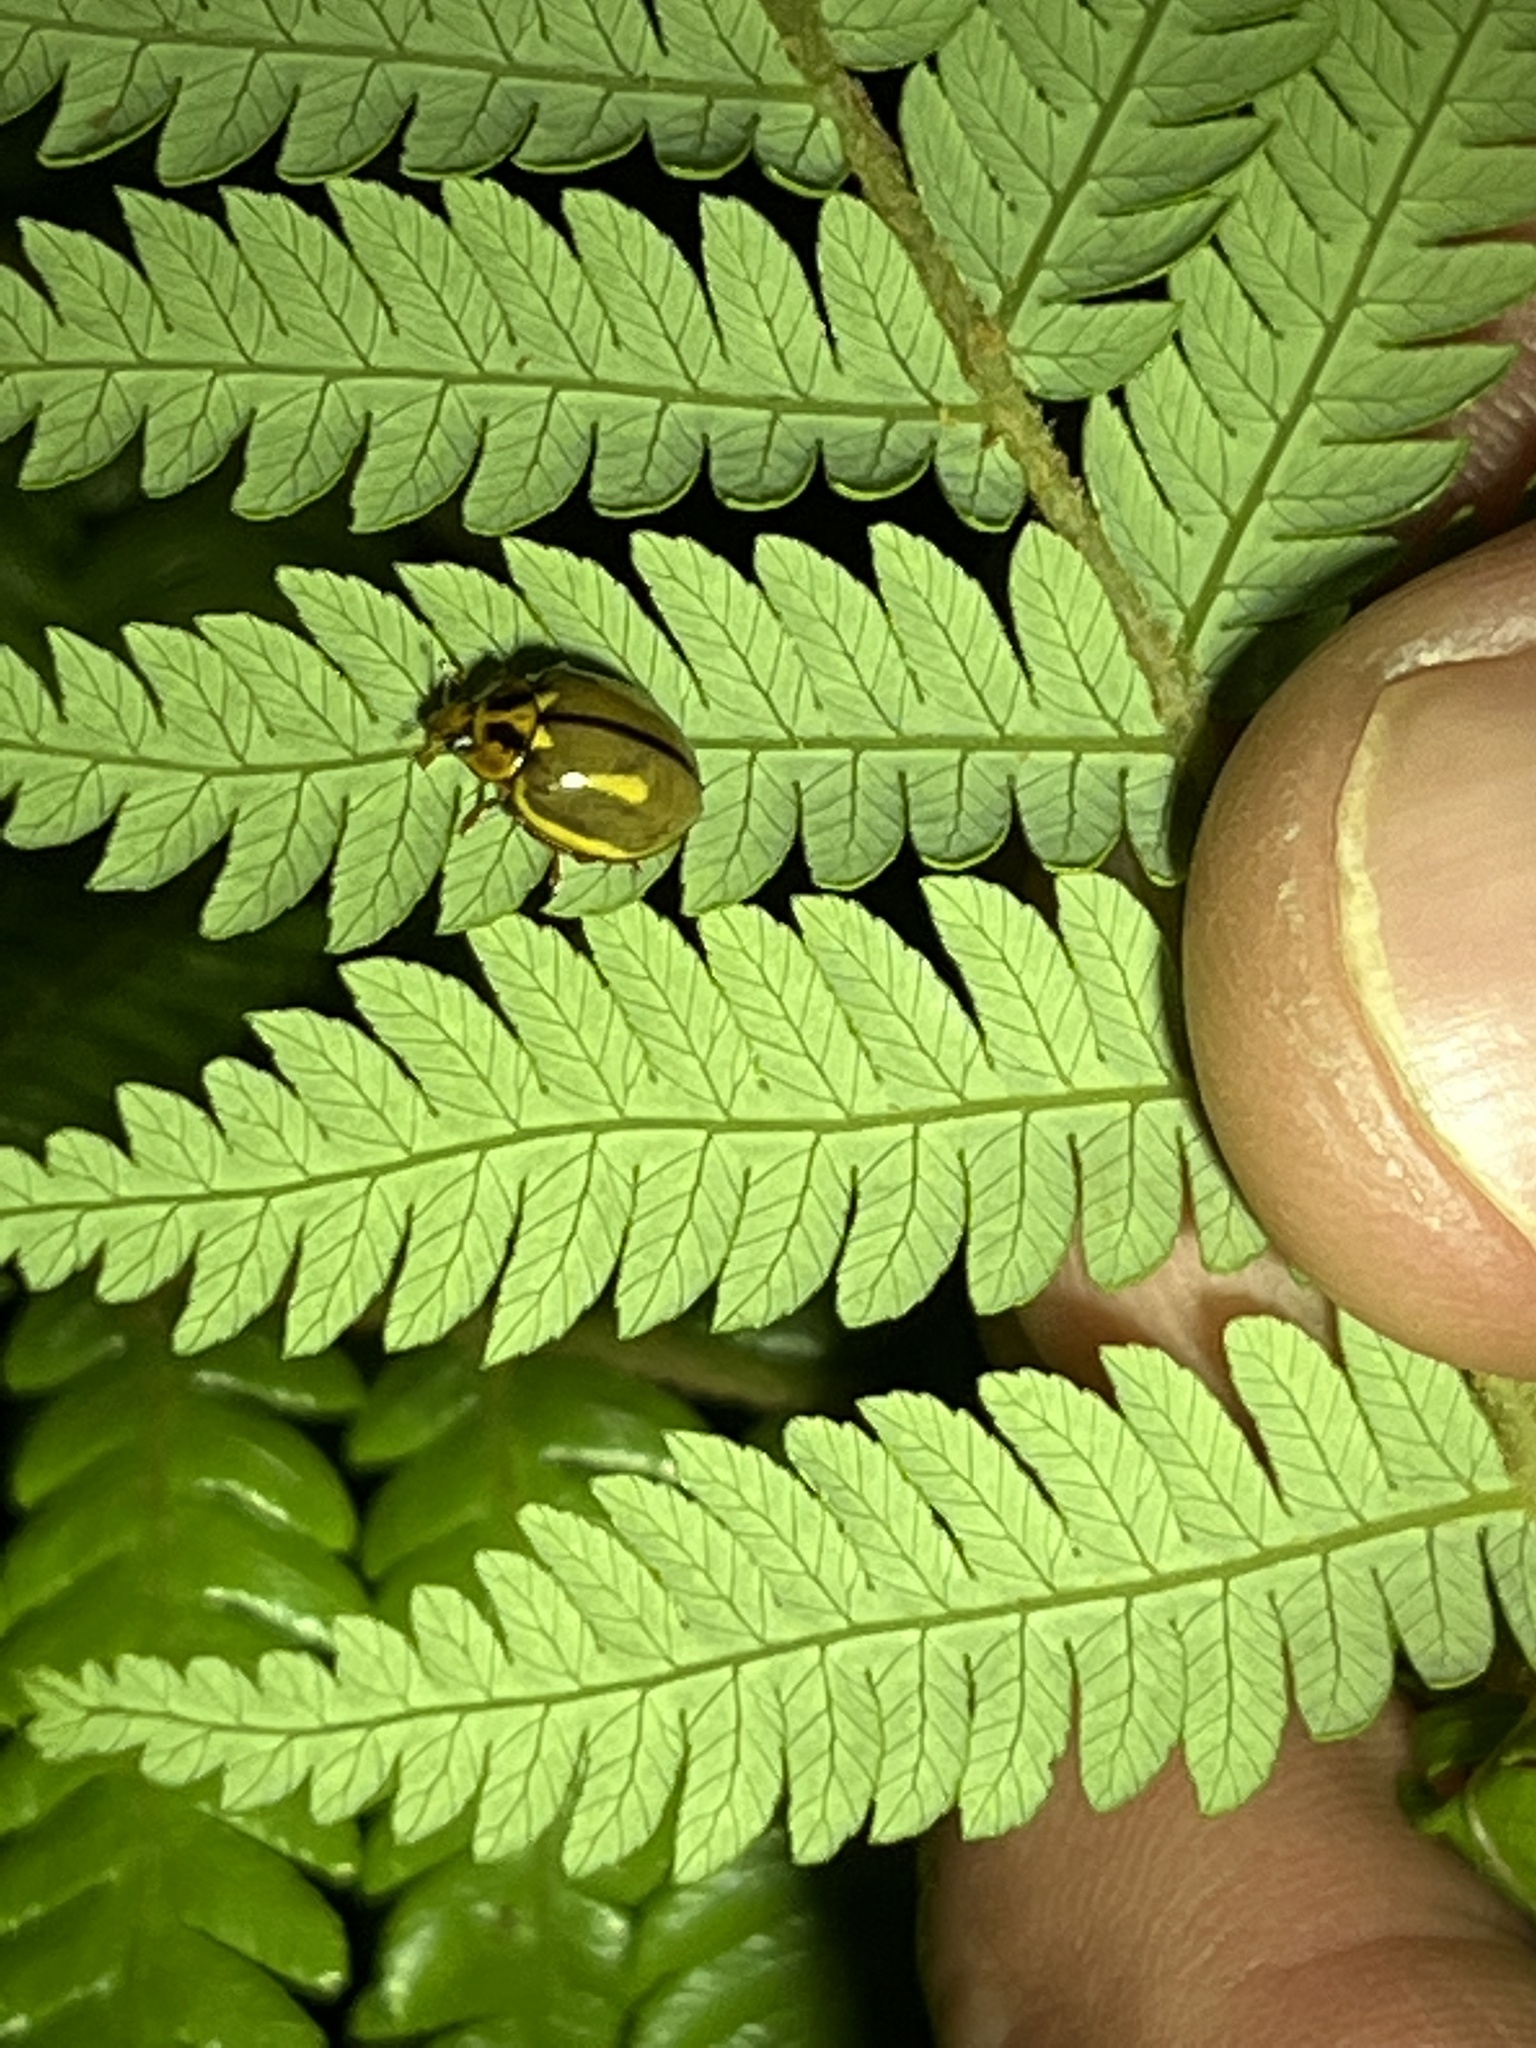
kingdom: Animalia
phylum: Arthropoda
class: Insecta
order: Coleoptera
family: Coccinellidae
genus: Harmonia
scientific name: Harmonia
